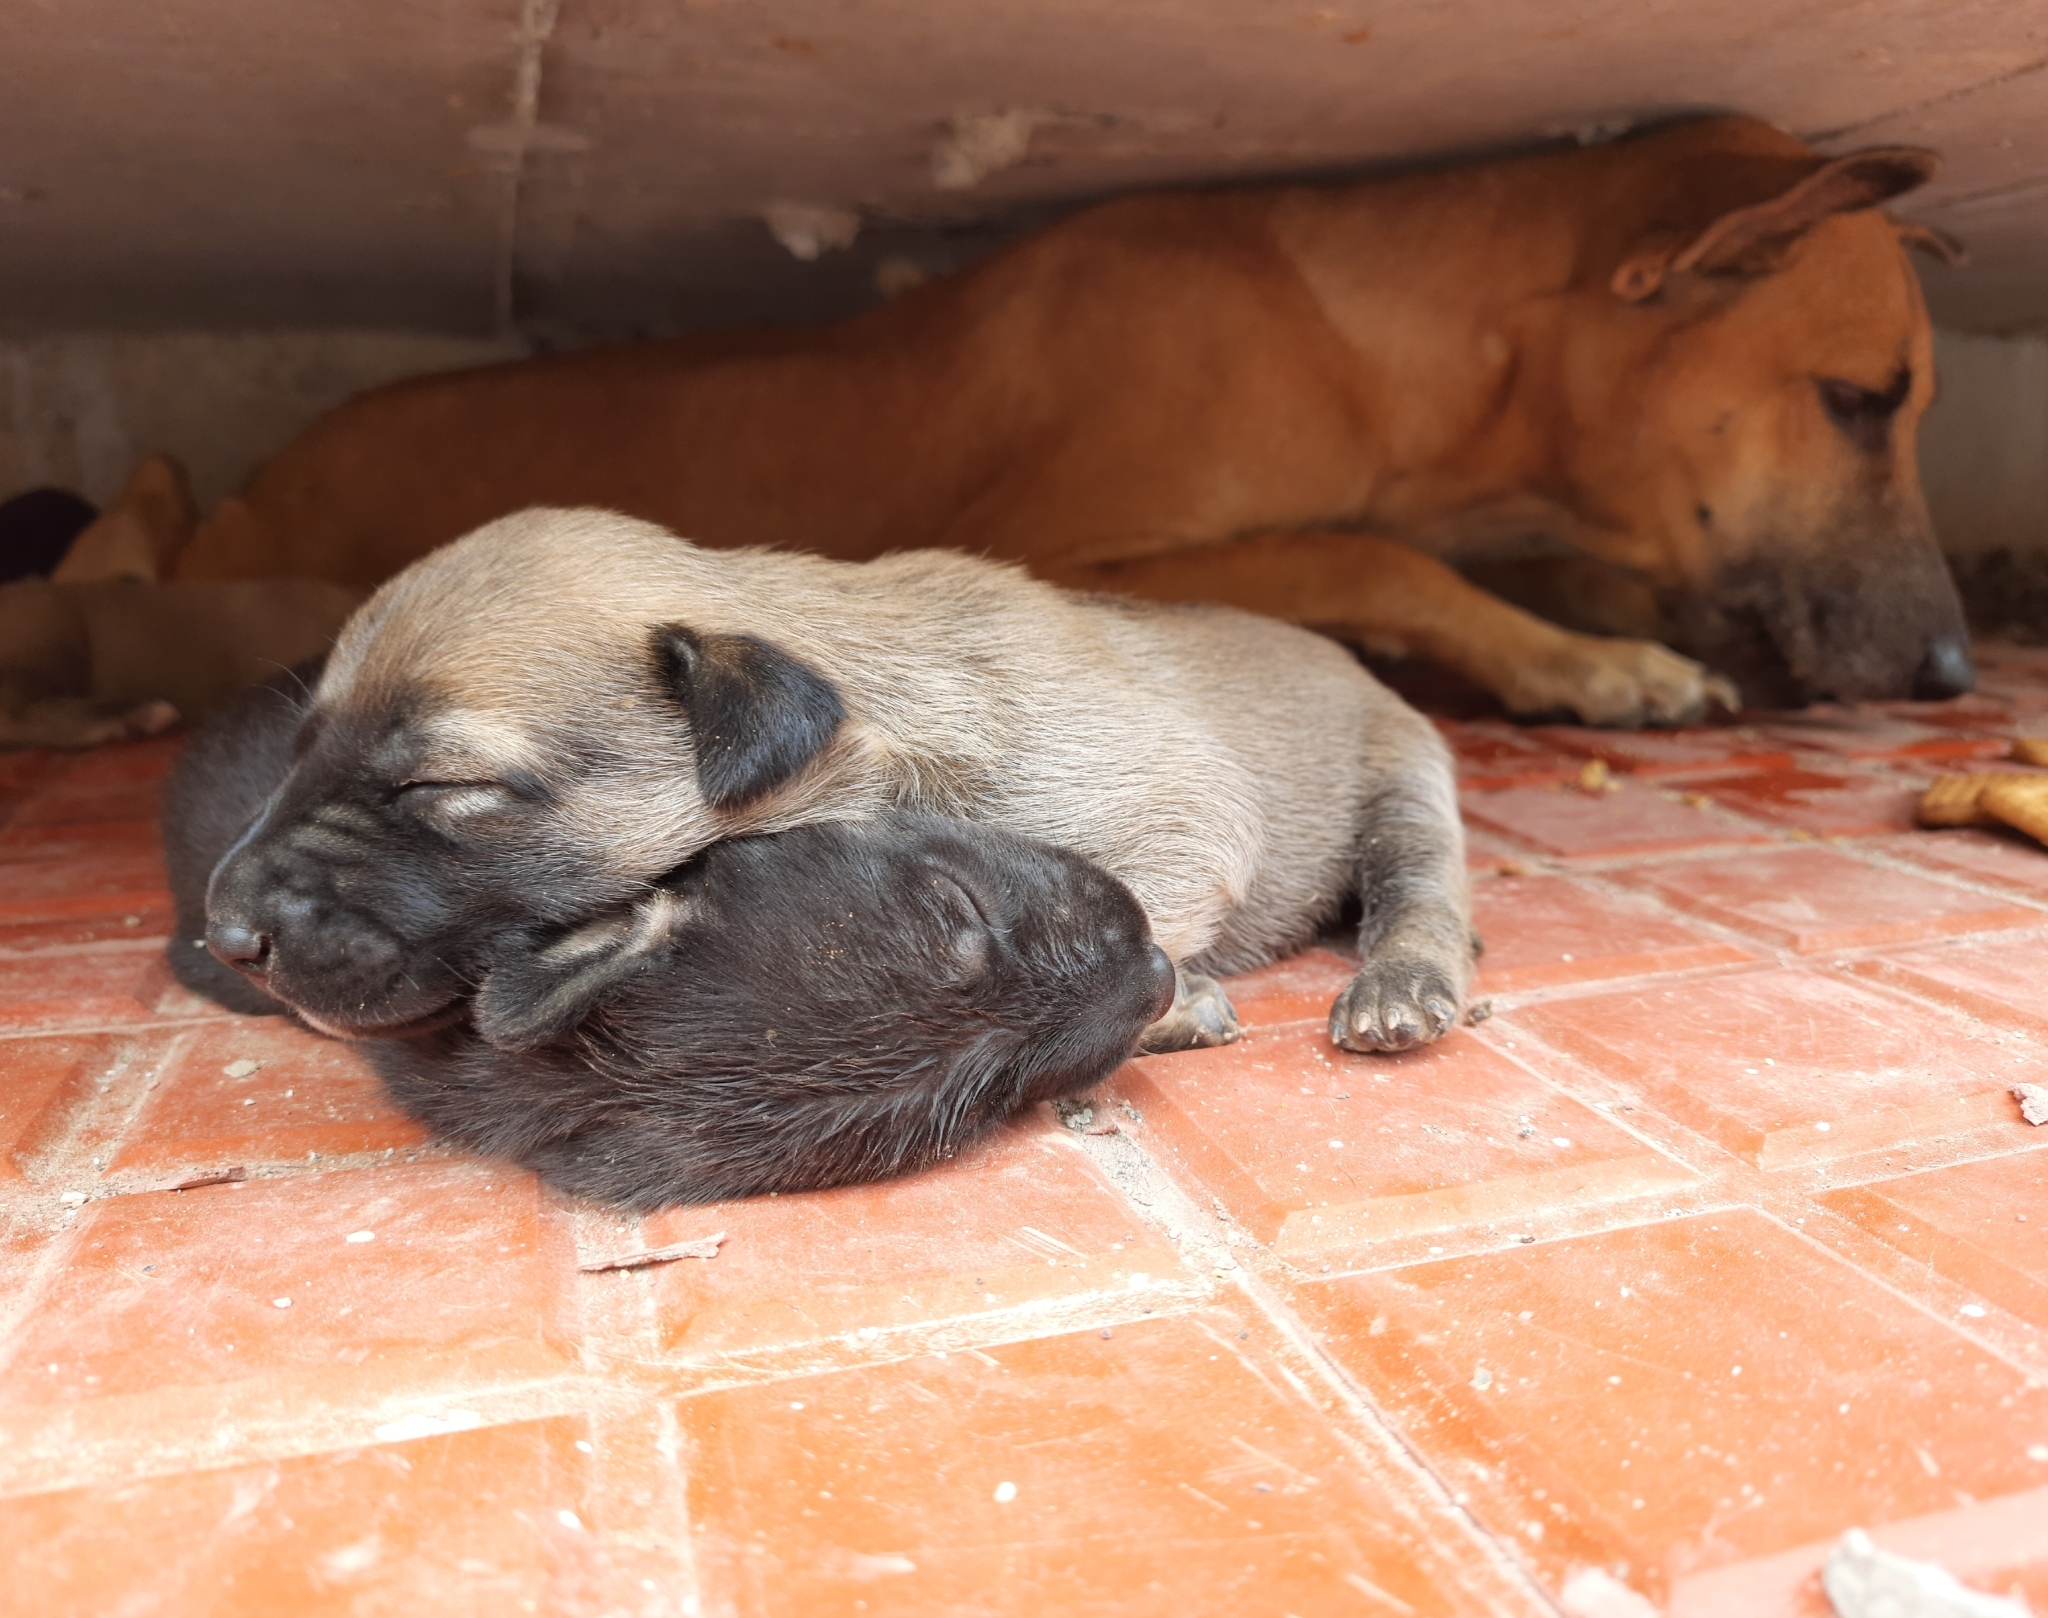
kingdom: Animalia
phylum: Chordata
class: Mammalia
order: Carnivora
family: Canidae
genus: Canis
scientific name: Canis lupus
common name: Gray wolf
